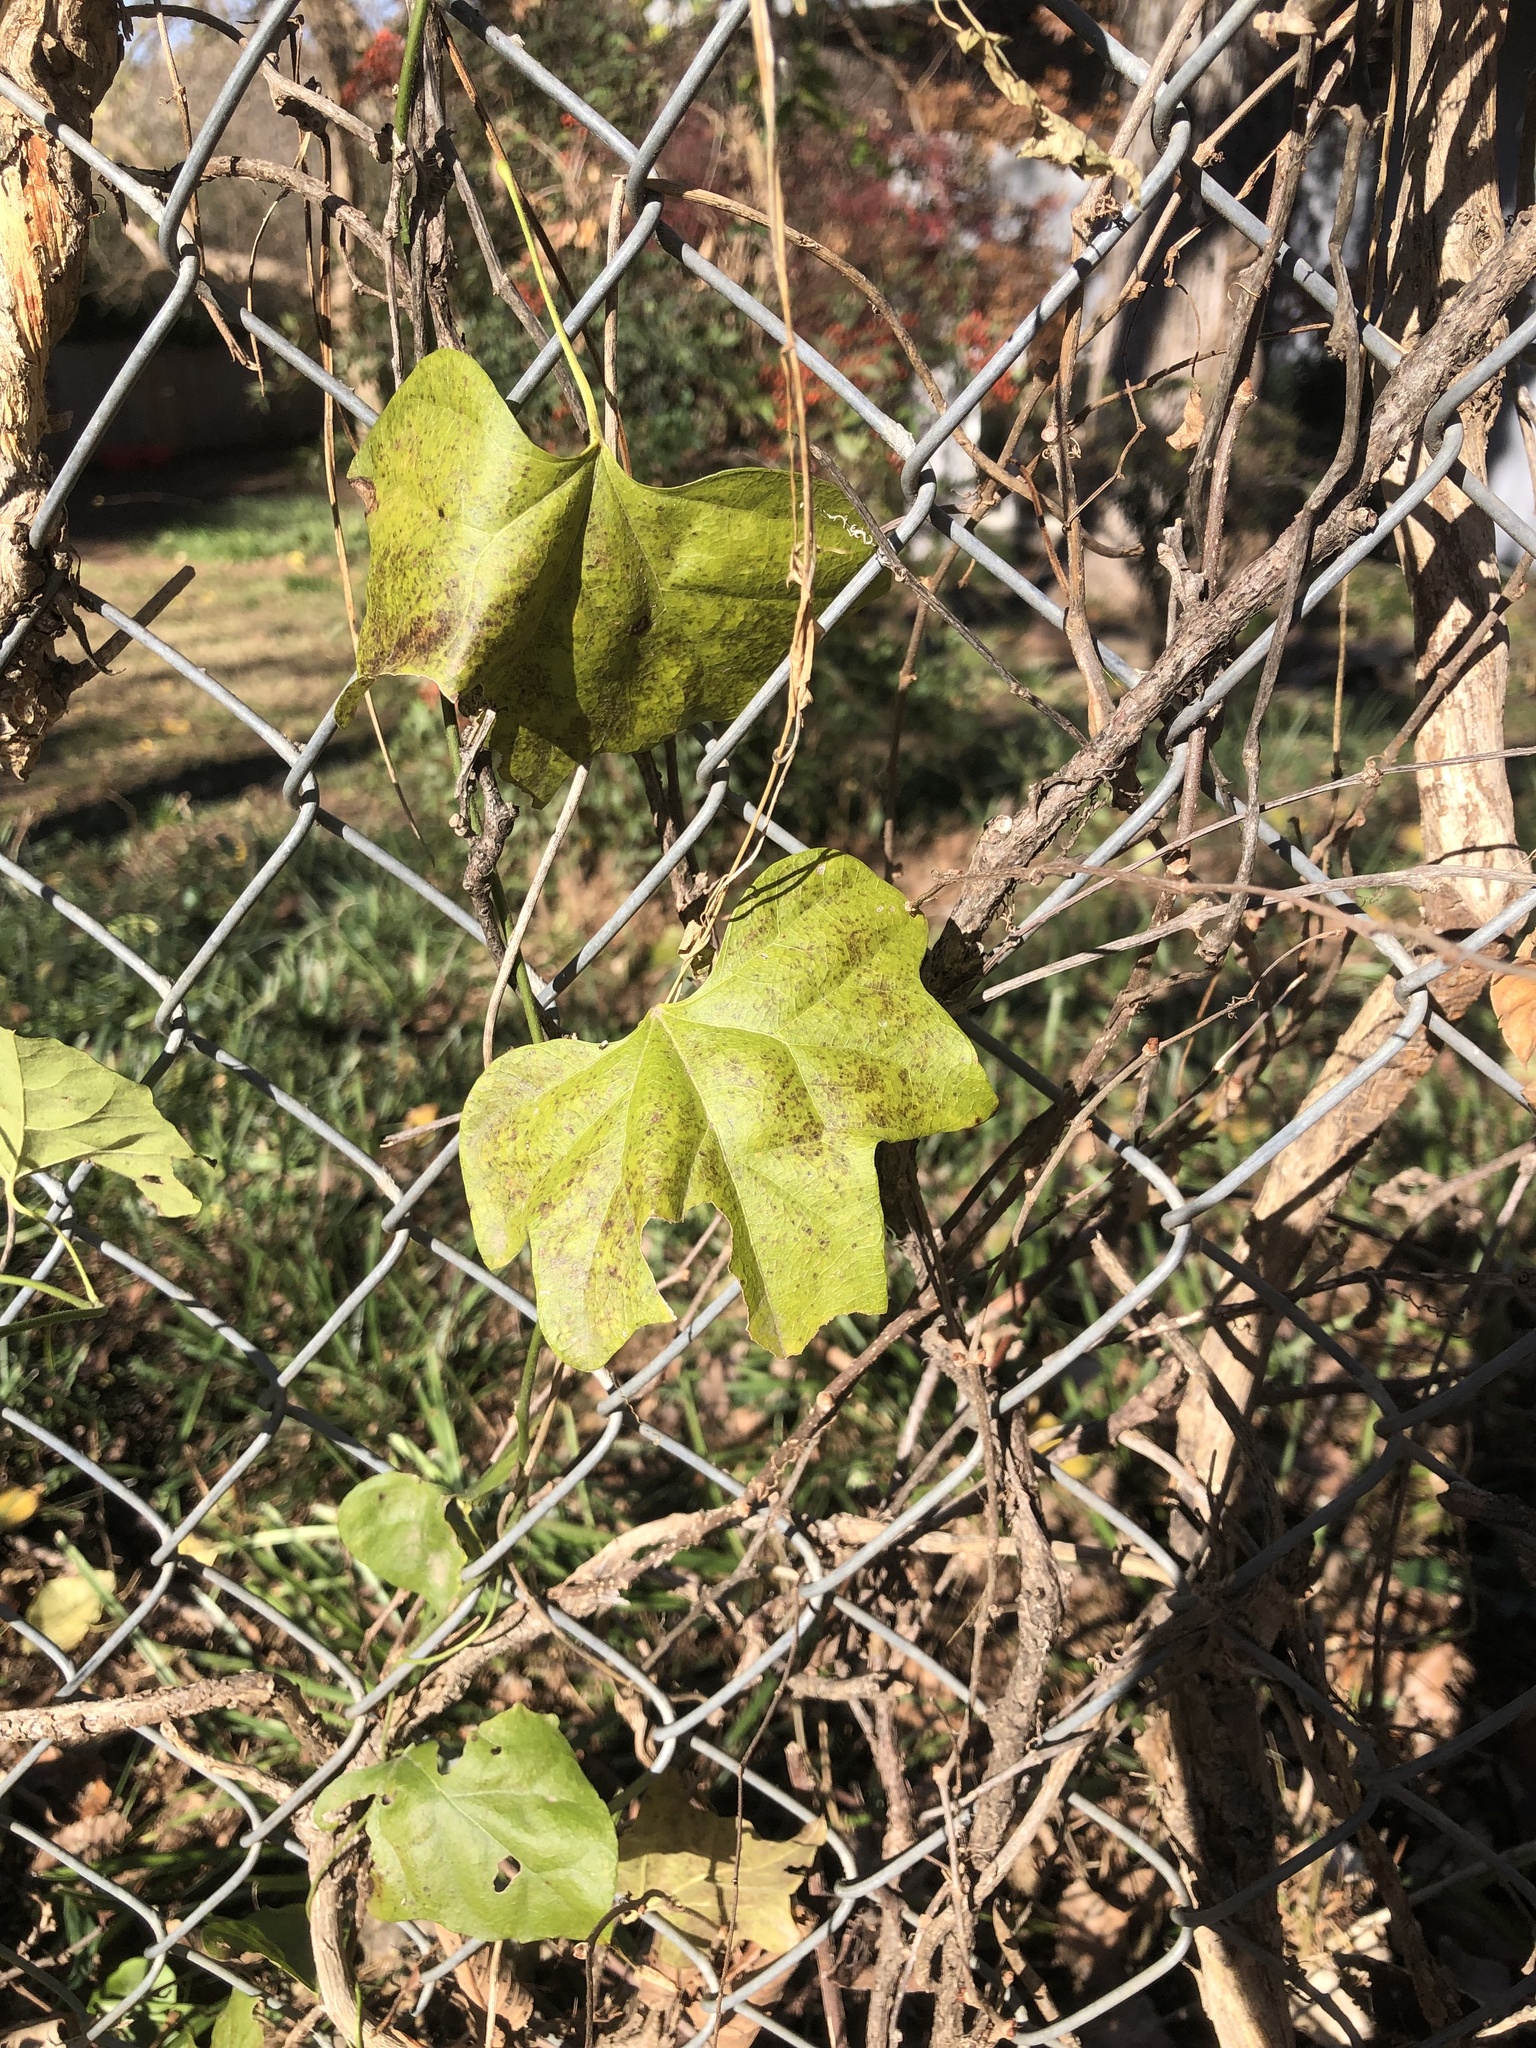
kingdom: Plantae
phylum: Tracheophyta
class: Magnoliopsida
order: Ranunculales
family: Menispermaceae
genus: Cocculus
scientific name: Cocculus carolinus
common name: Carolina moonseed
